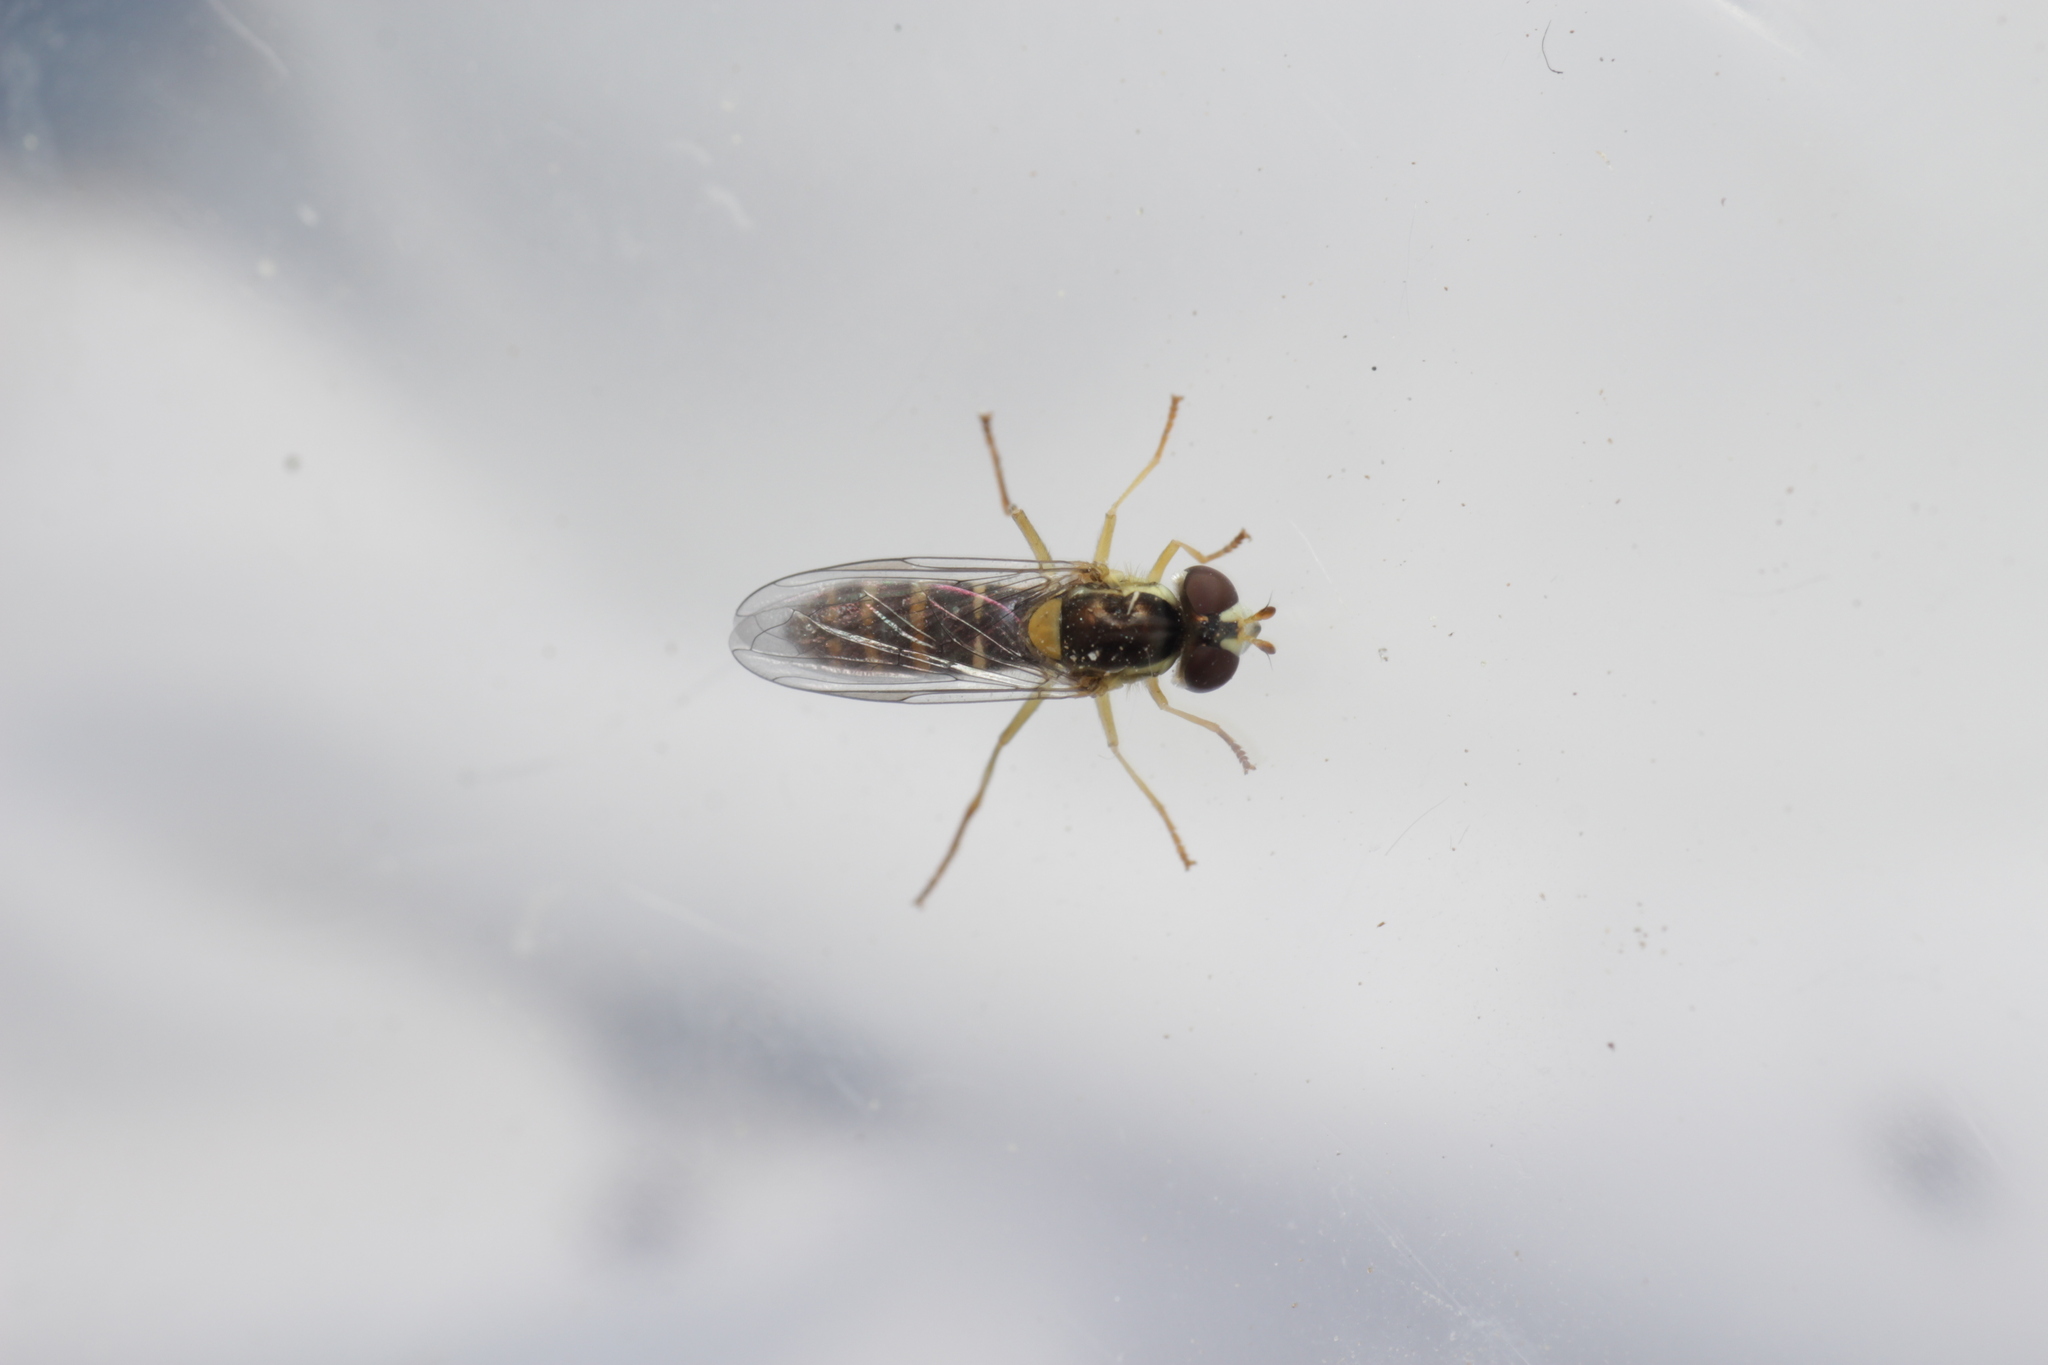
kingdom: Animalia
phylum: Arthropoda
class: Insecta
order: Diptera
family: Syrphidae
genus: Sphaerophoria
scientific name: Sphaerophoria
